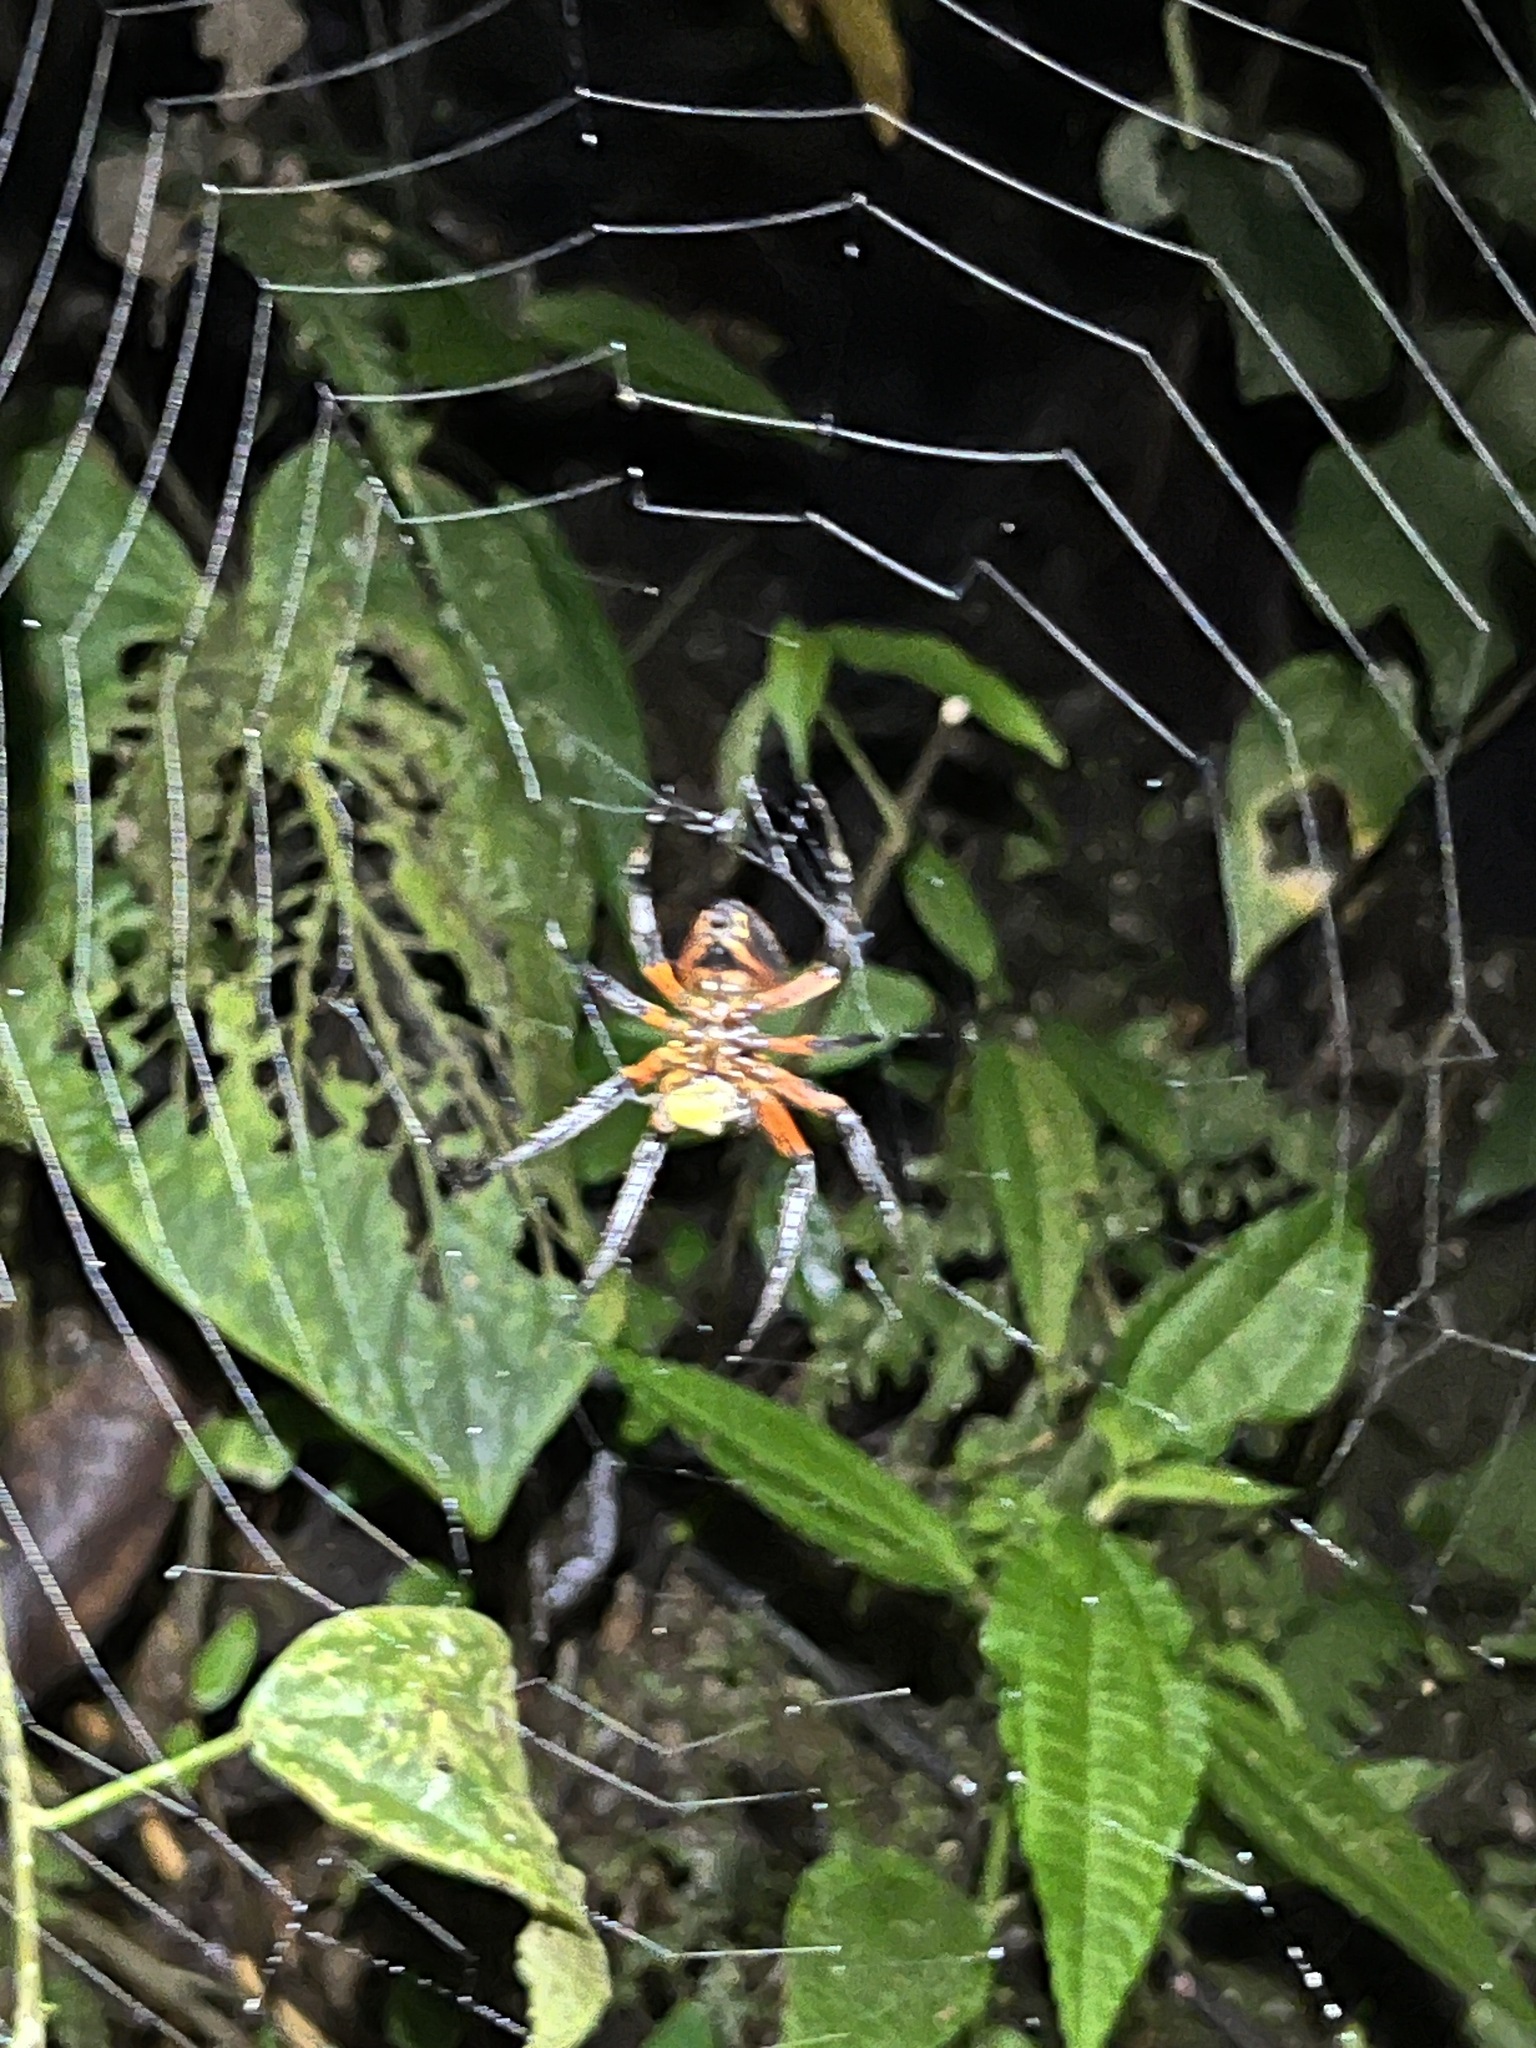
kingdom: Animalia
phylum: Arthropoda
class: Arachnida
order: Araneae
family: Araneidae
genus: Eriophora
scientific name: Eriophora fuliginea
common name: Orb weavers
